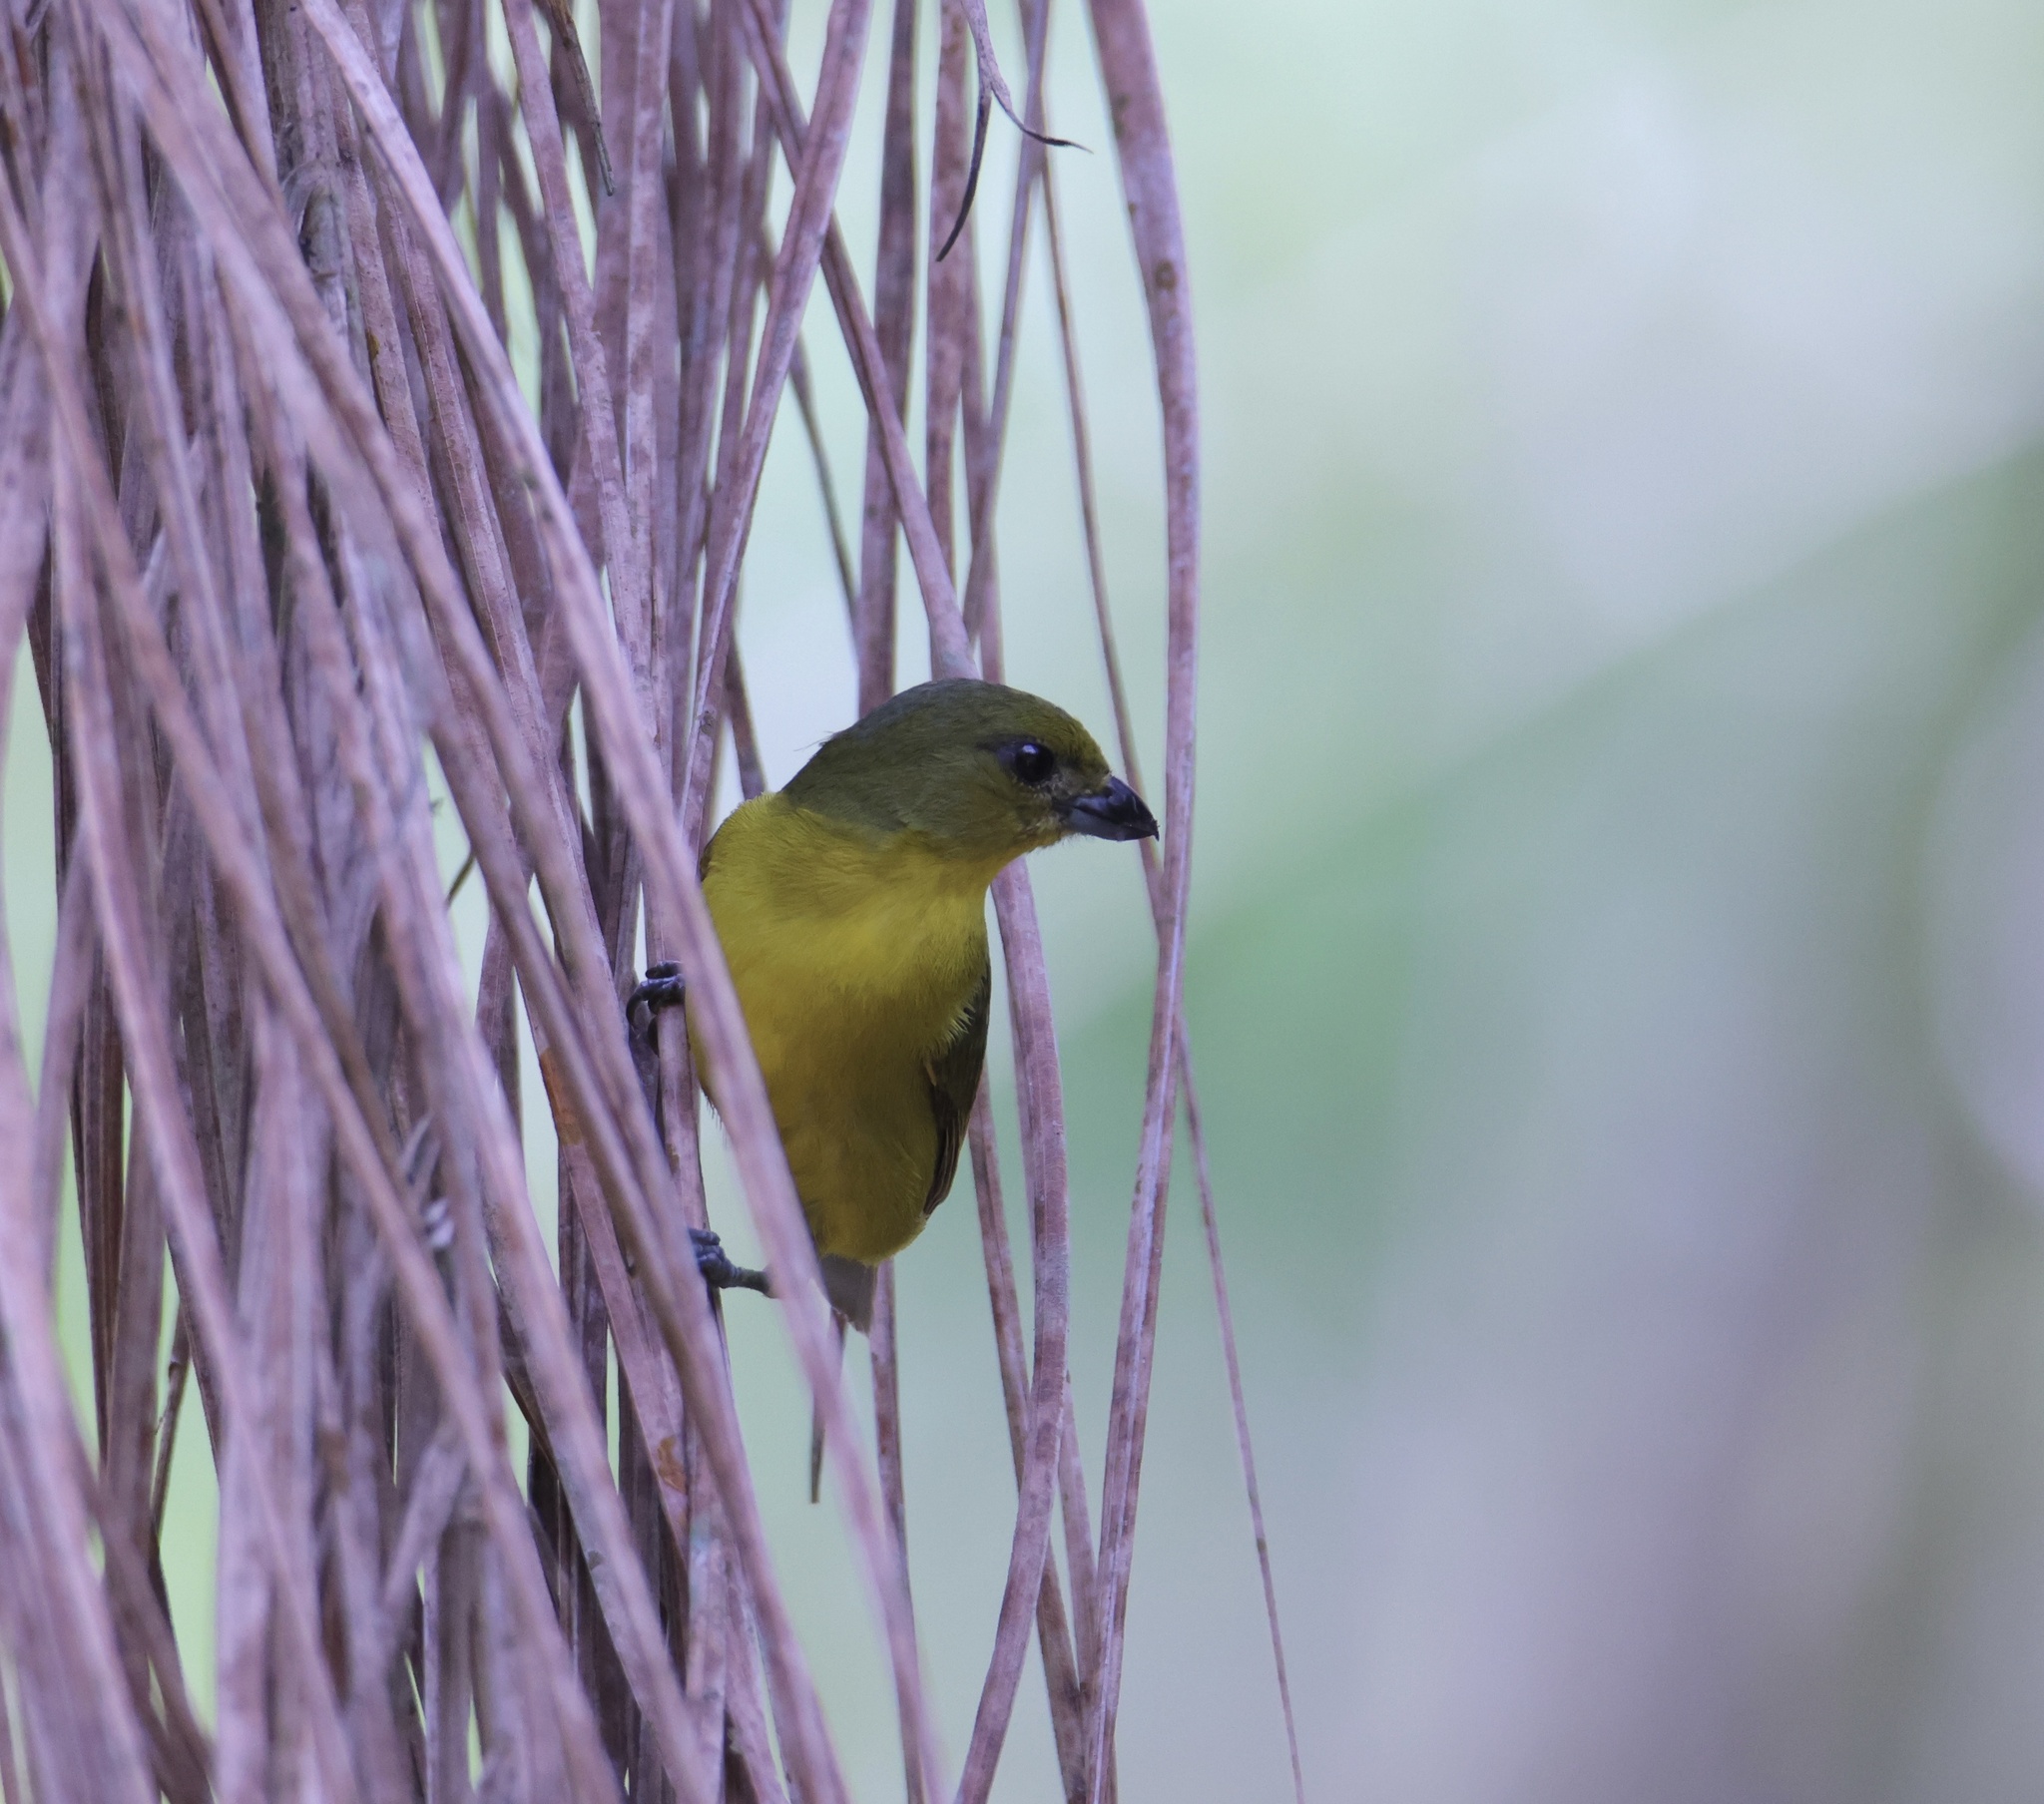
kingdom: Animalia
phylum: Chordata
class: Aves
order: Passeriformes
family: Fringillidae
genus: Euphonia
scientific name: Euphonia laniirostris
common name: Thick-billed euphonia
